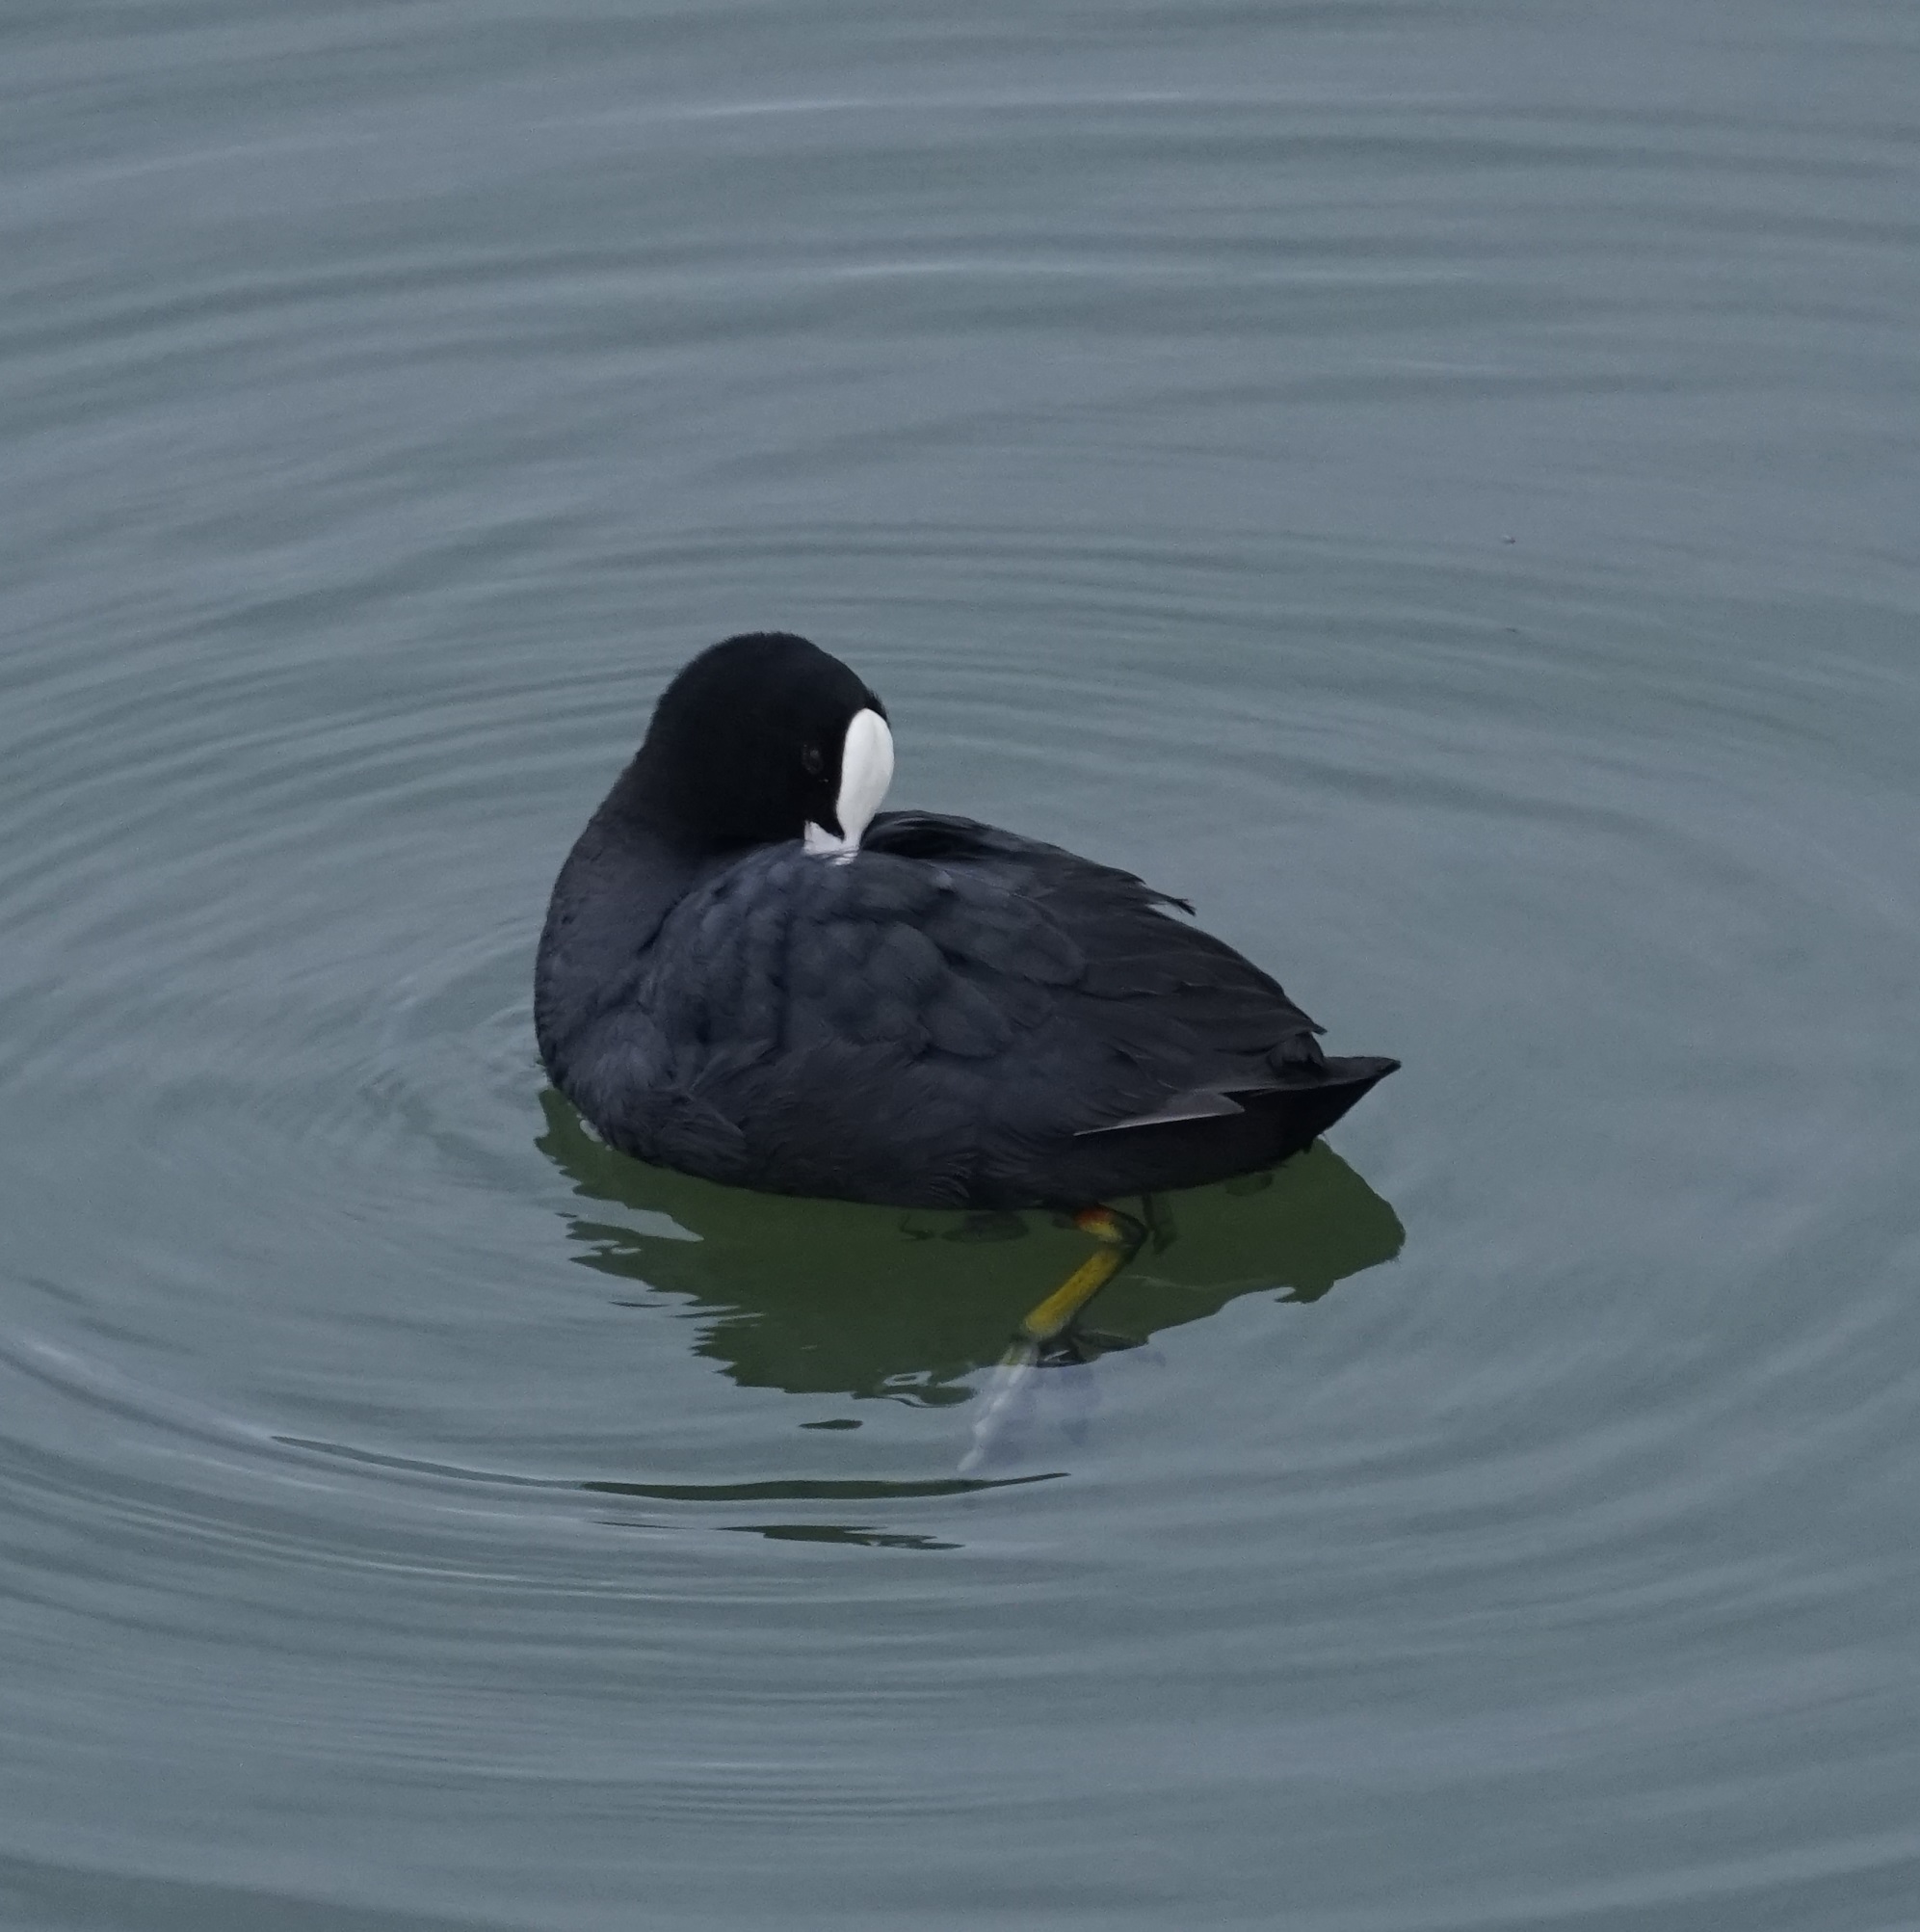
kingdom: Animalia
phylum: Chordata
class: Aves
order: Gruiformes
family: Rallidae
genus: Fulica
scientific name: Fulica atra
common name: Eurasian coot
